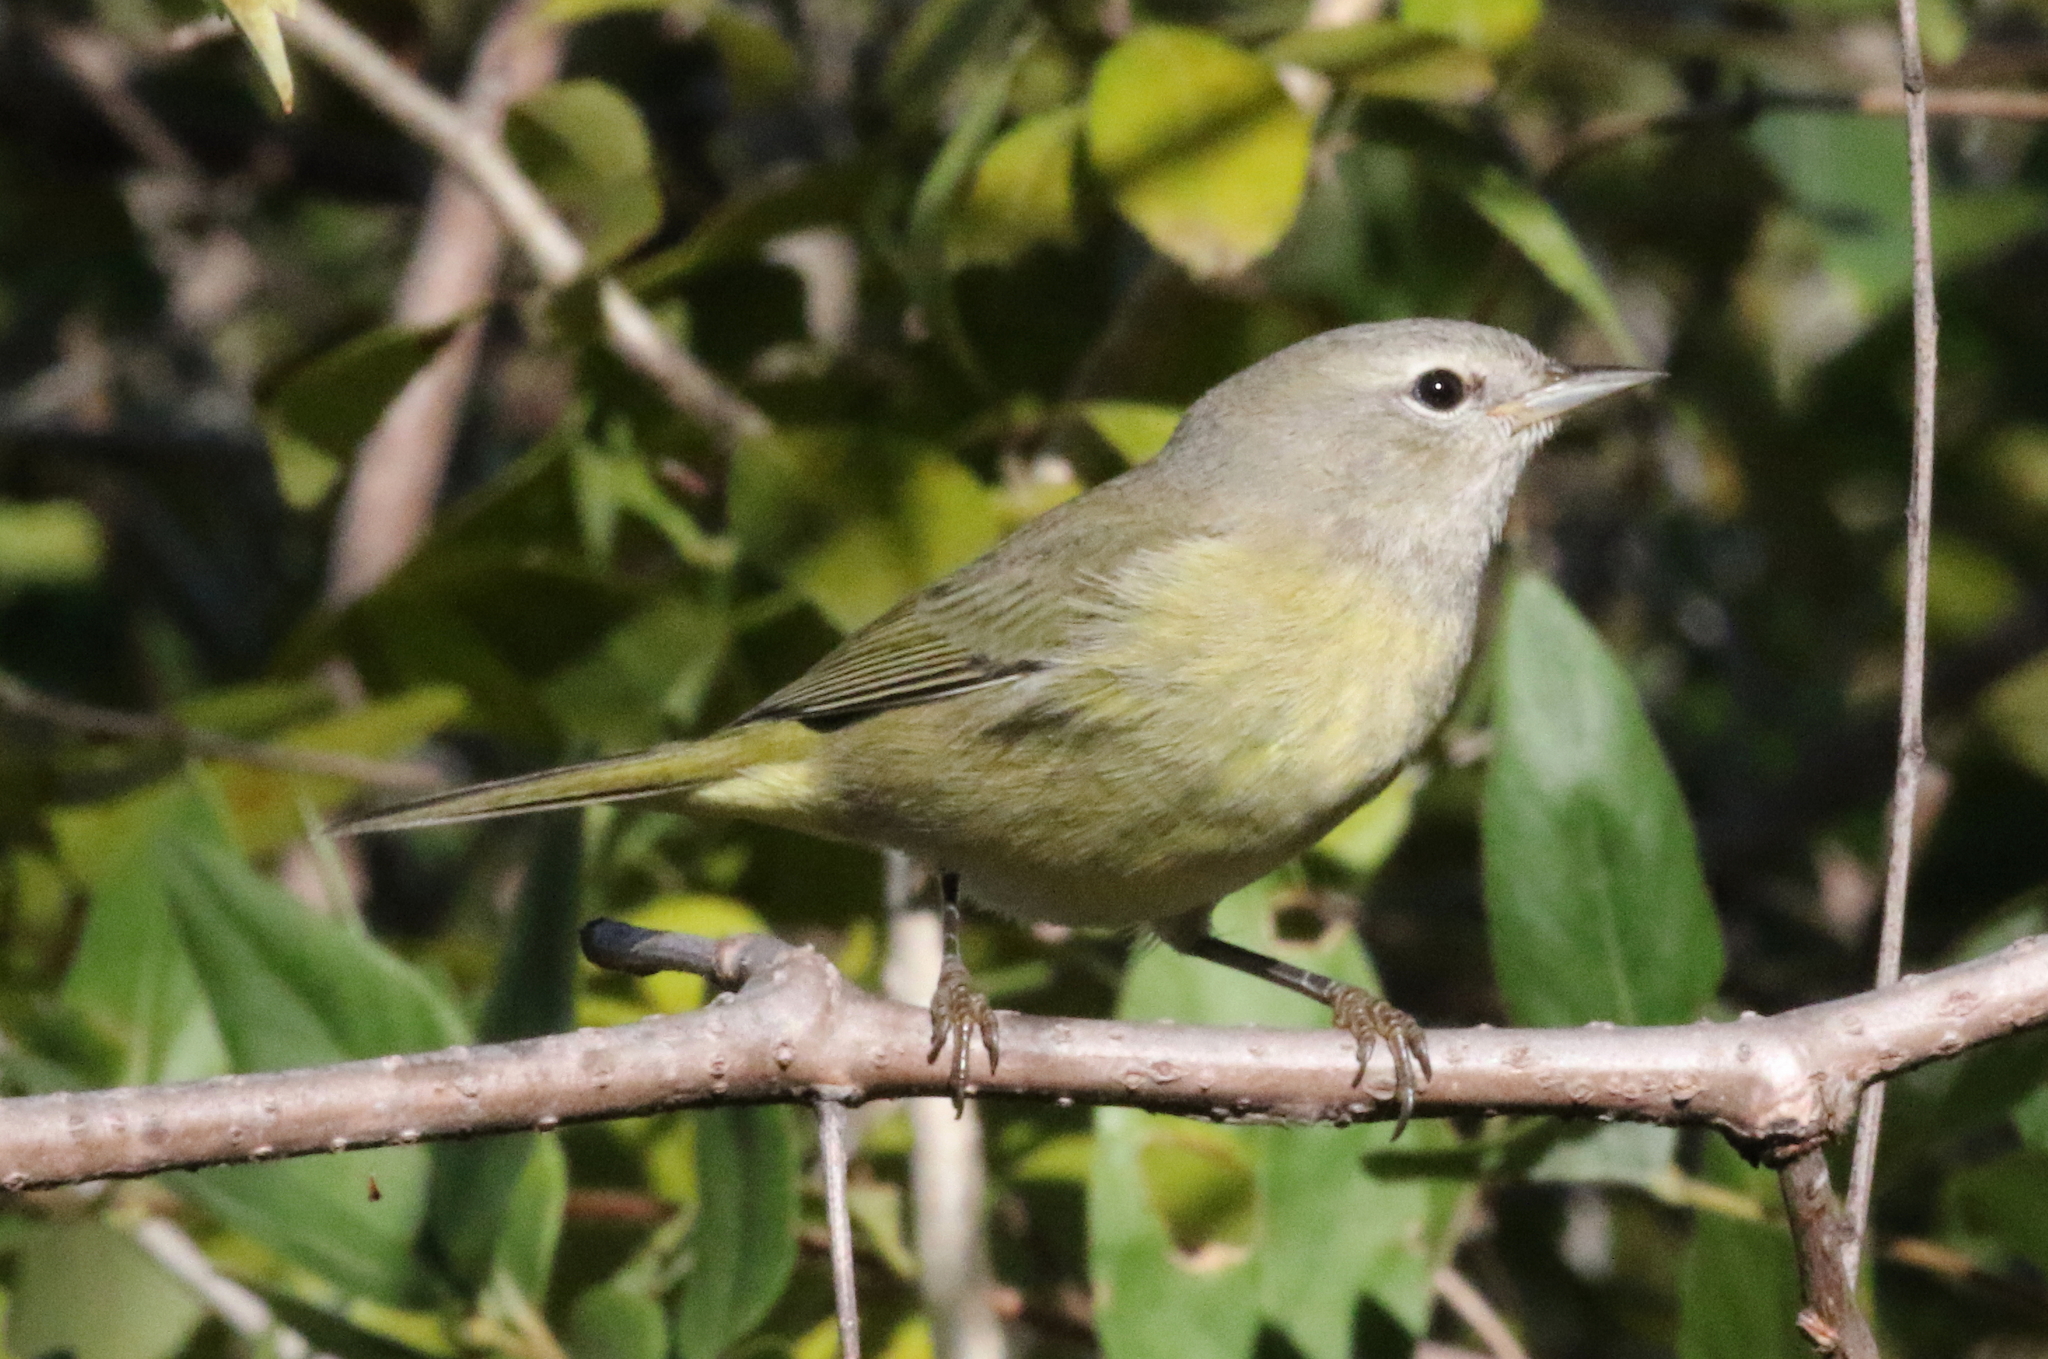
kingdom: Animalia
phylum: Chordata
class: Aves
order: Passeriformes
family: Parulidae
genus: Leiothlypis
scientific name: Leiothlypis celata
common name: Orange-crowned warbler
